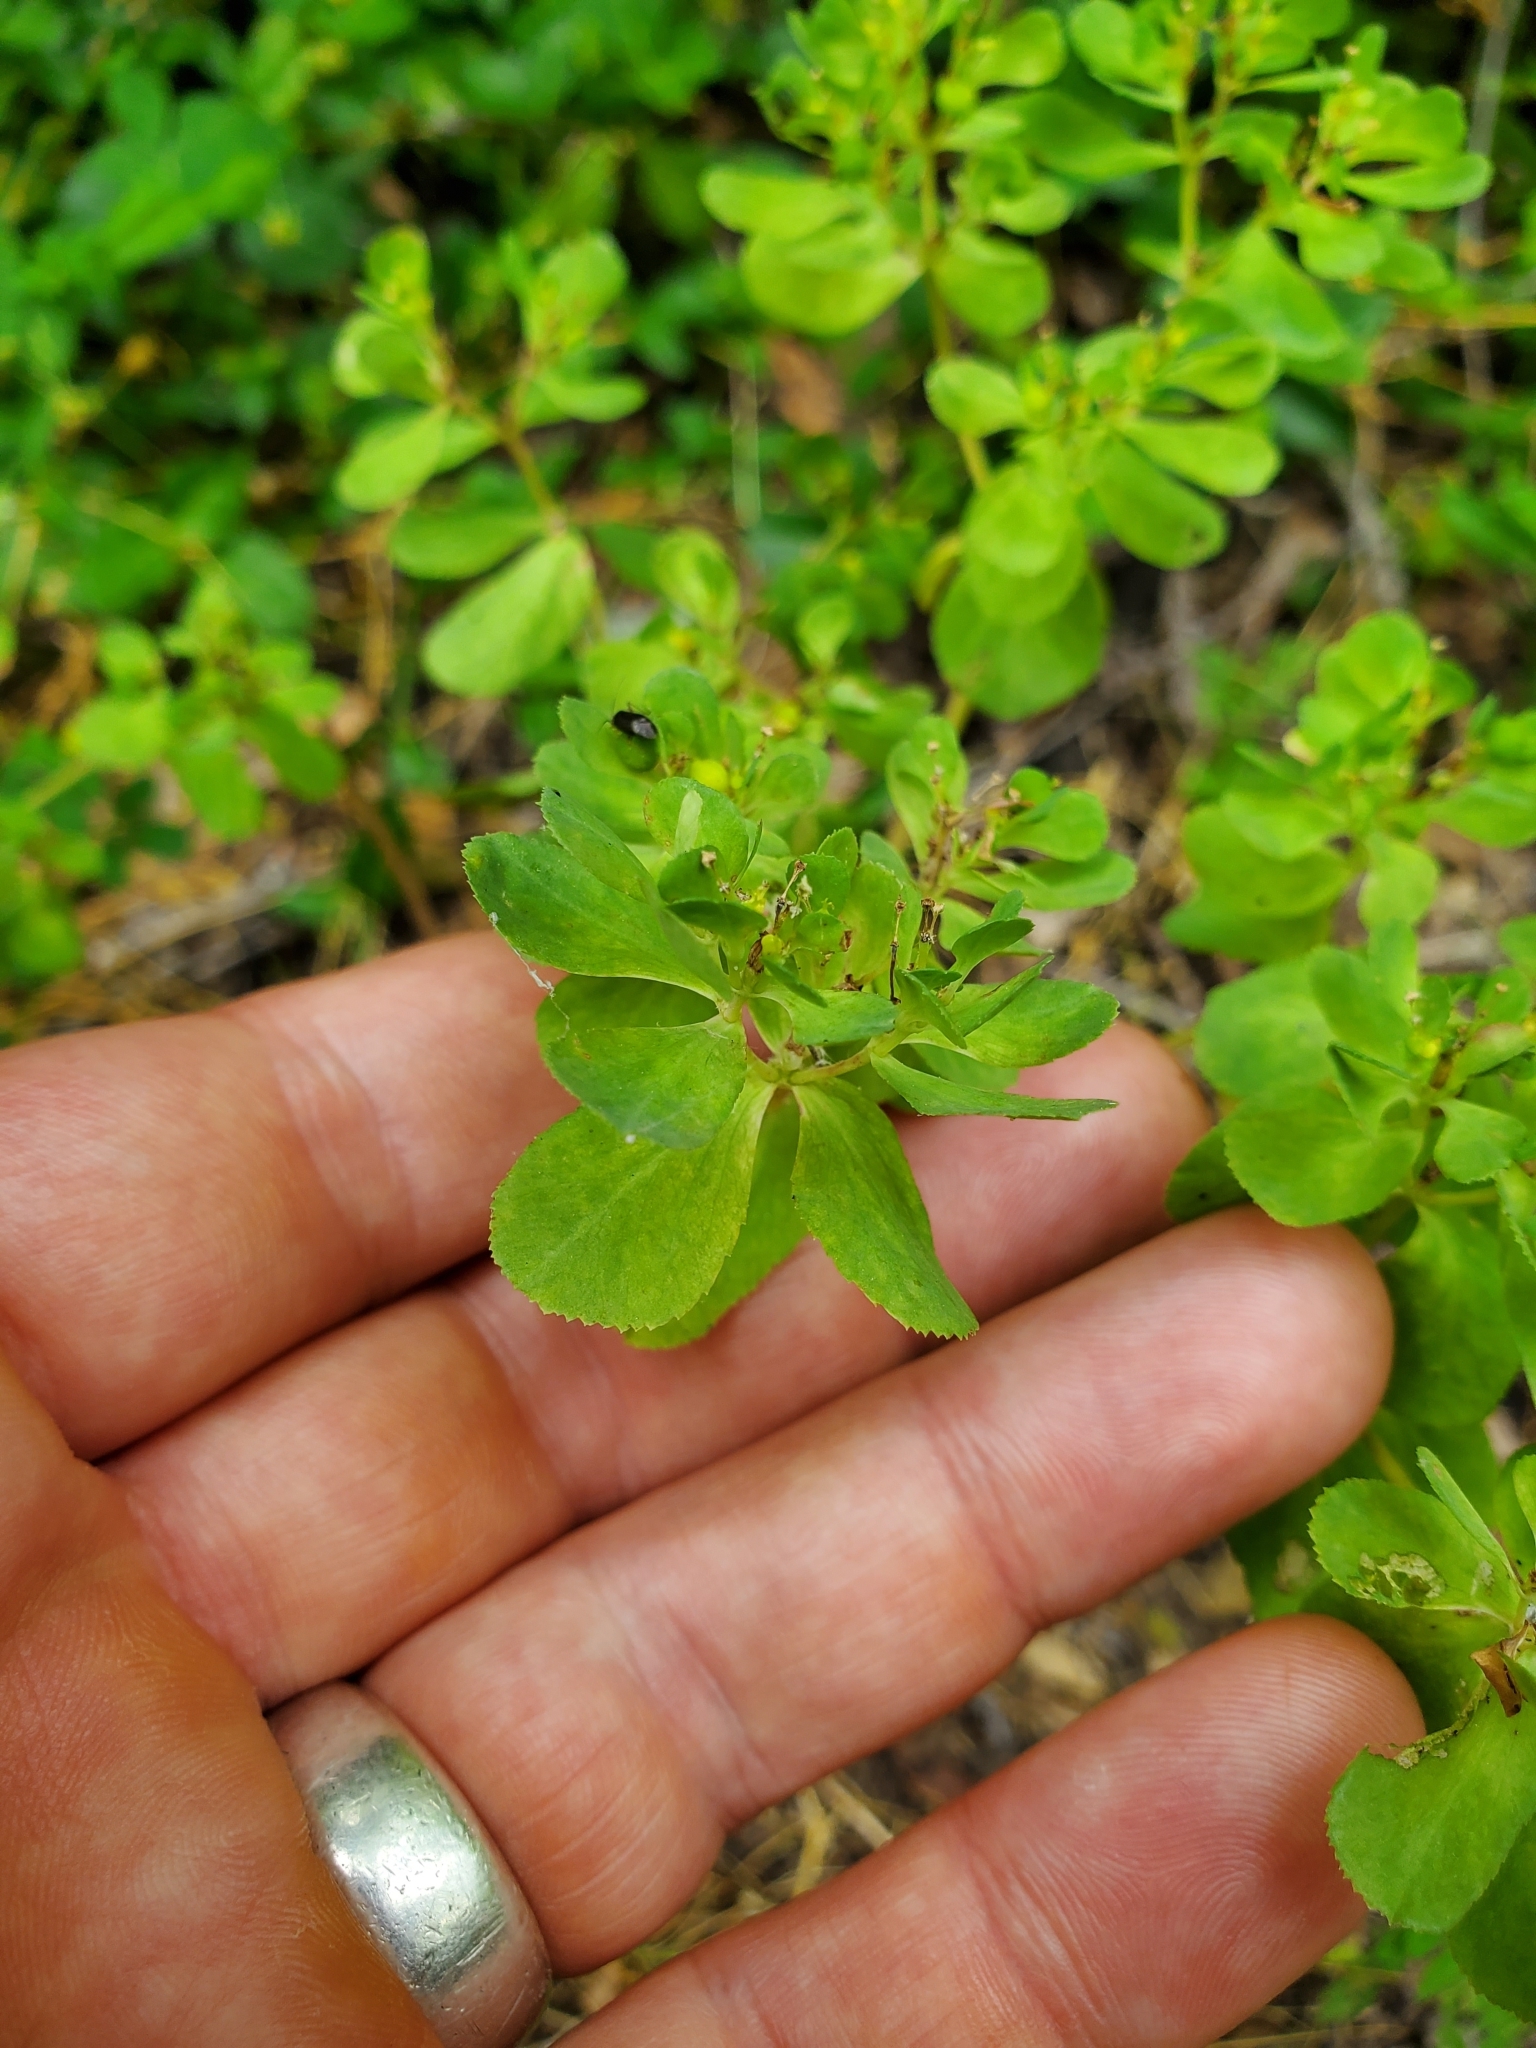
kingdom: Plantae
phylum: Tracheophyta
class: Magnoliopsida
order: Malpighiales
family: Euphorbiaceae
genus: Euphorbia
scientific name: Euphorbia helioscopia
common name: Sun spurge
